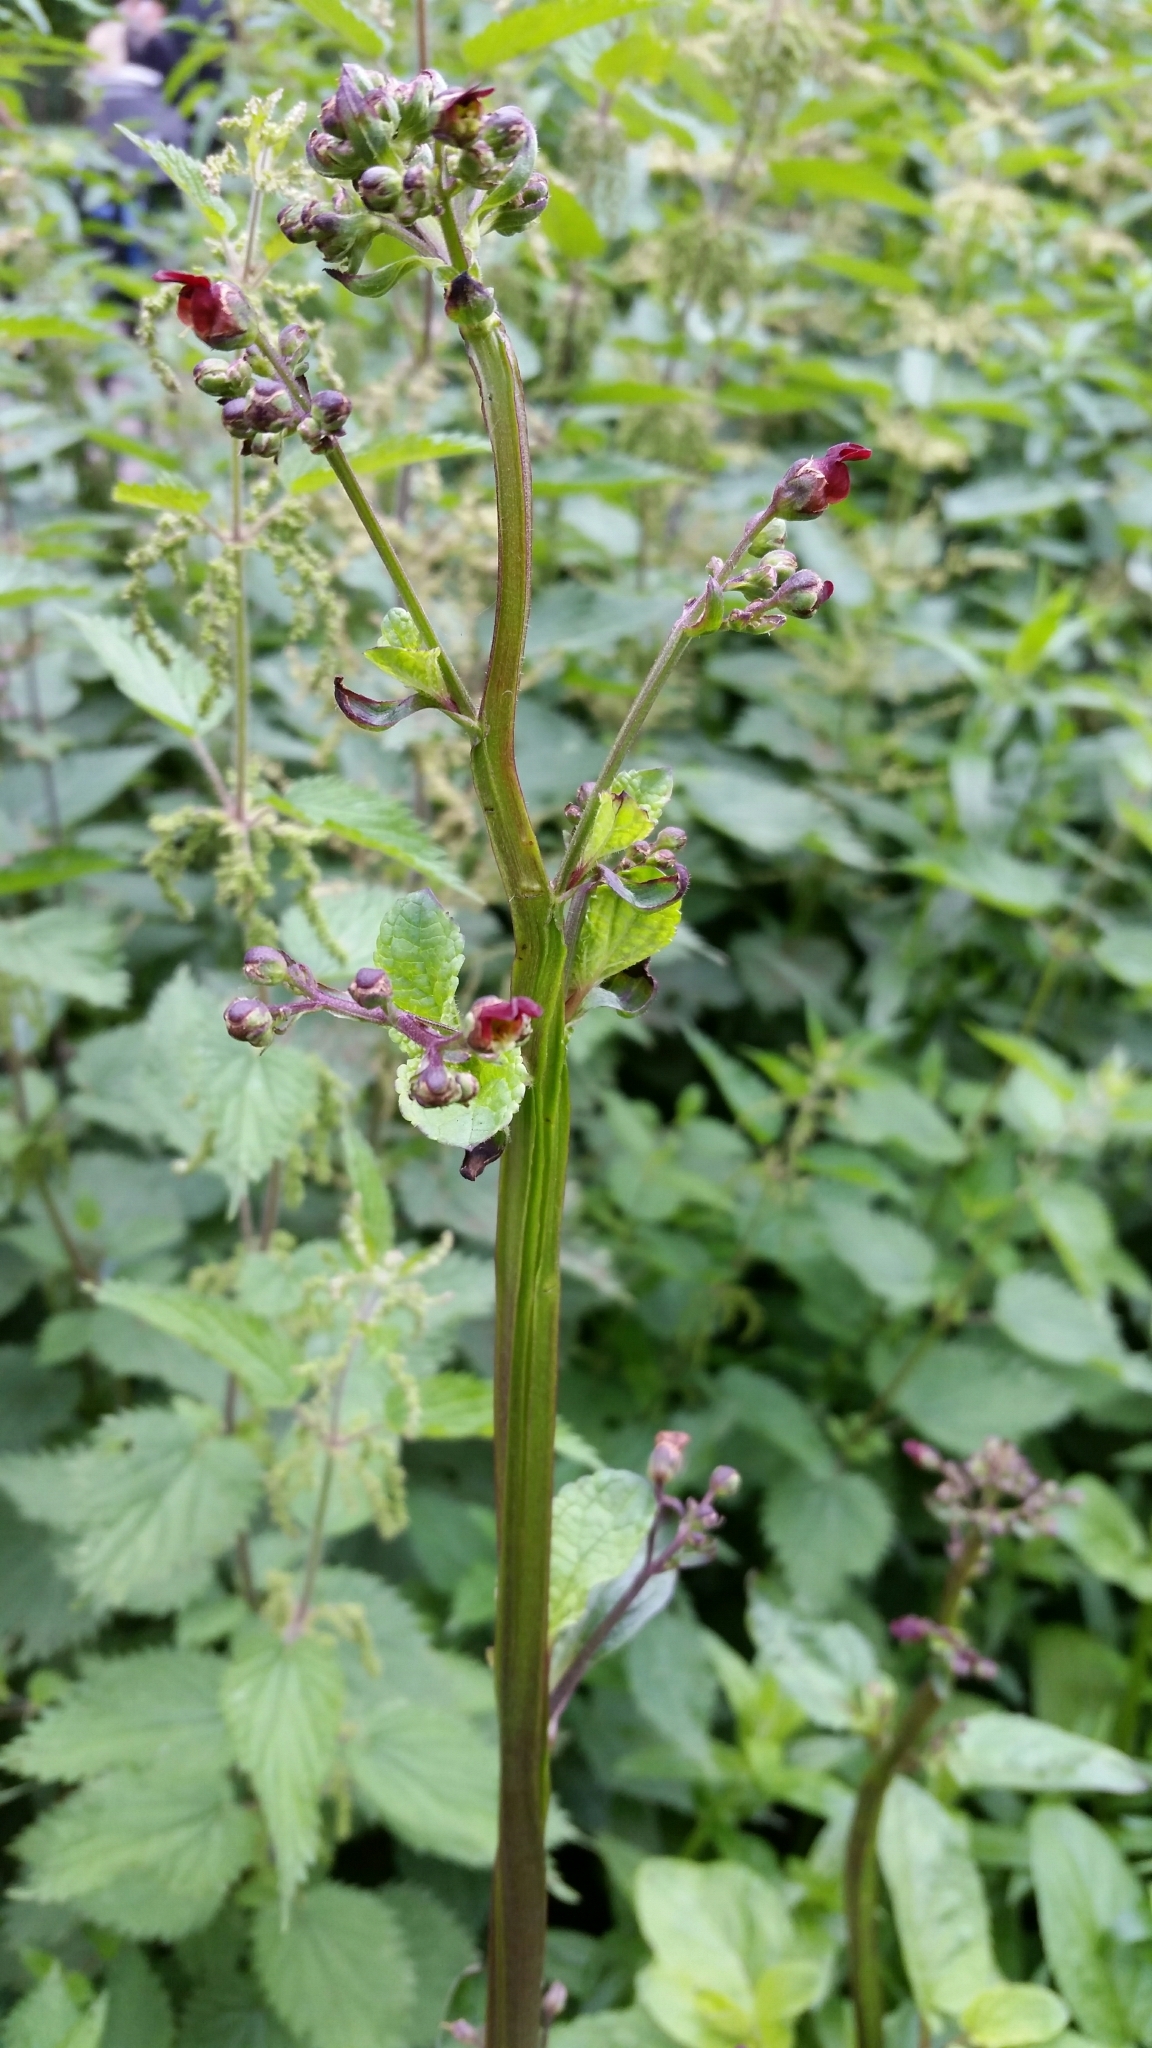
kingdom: Plantae
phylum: Tracheophyta
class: Magnoliopsida
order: Lamiales
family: Scrophulariaceae
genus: Scrophularia
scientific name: Scrophularia auriculata
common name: Water betony
